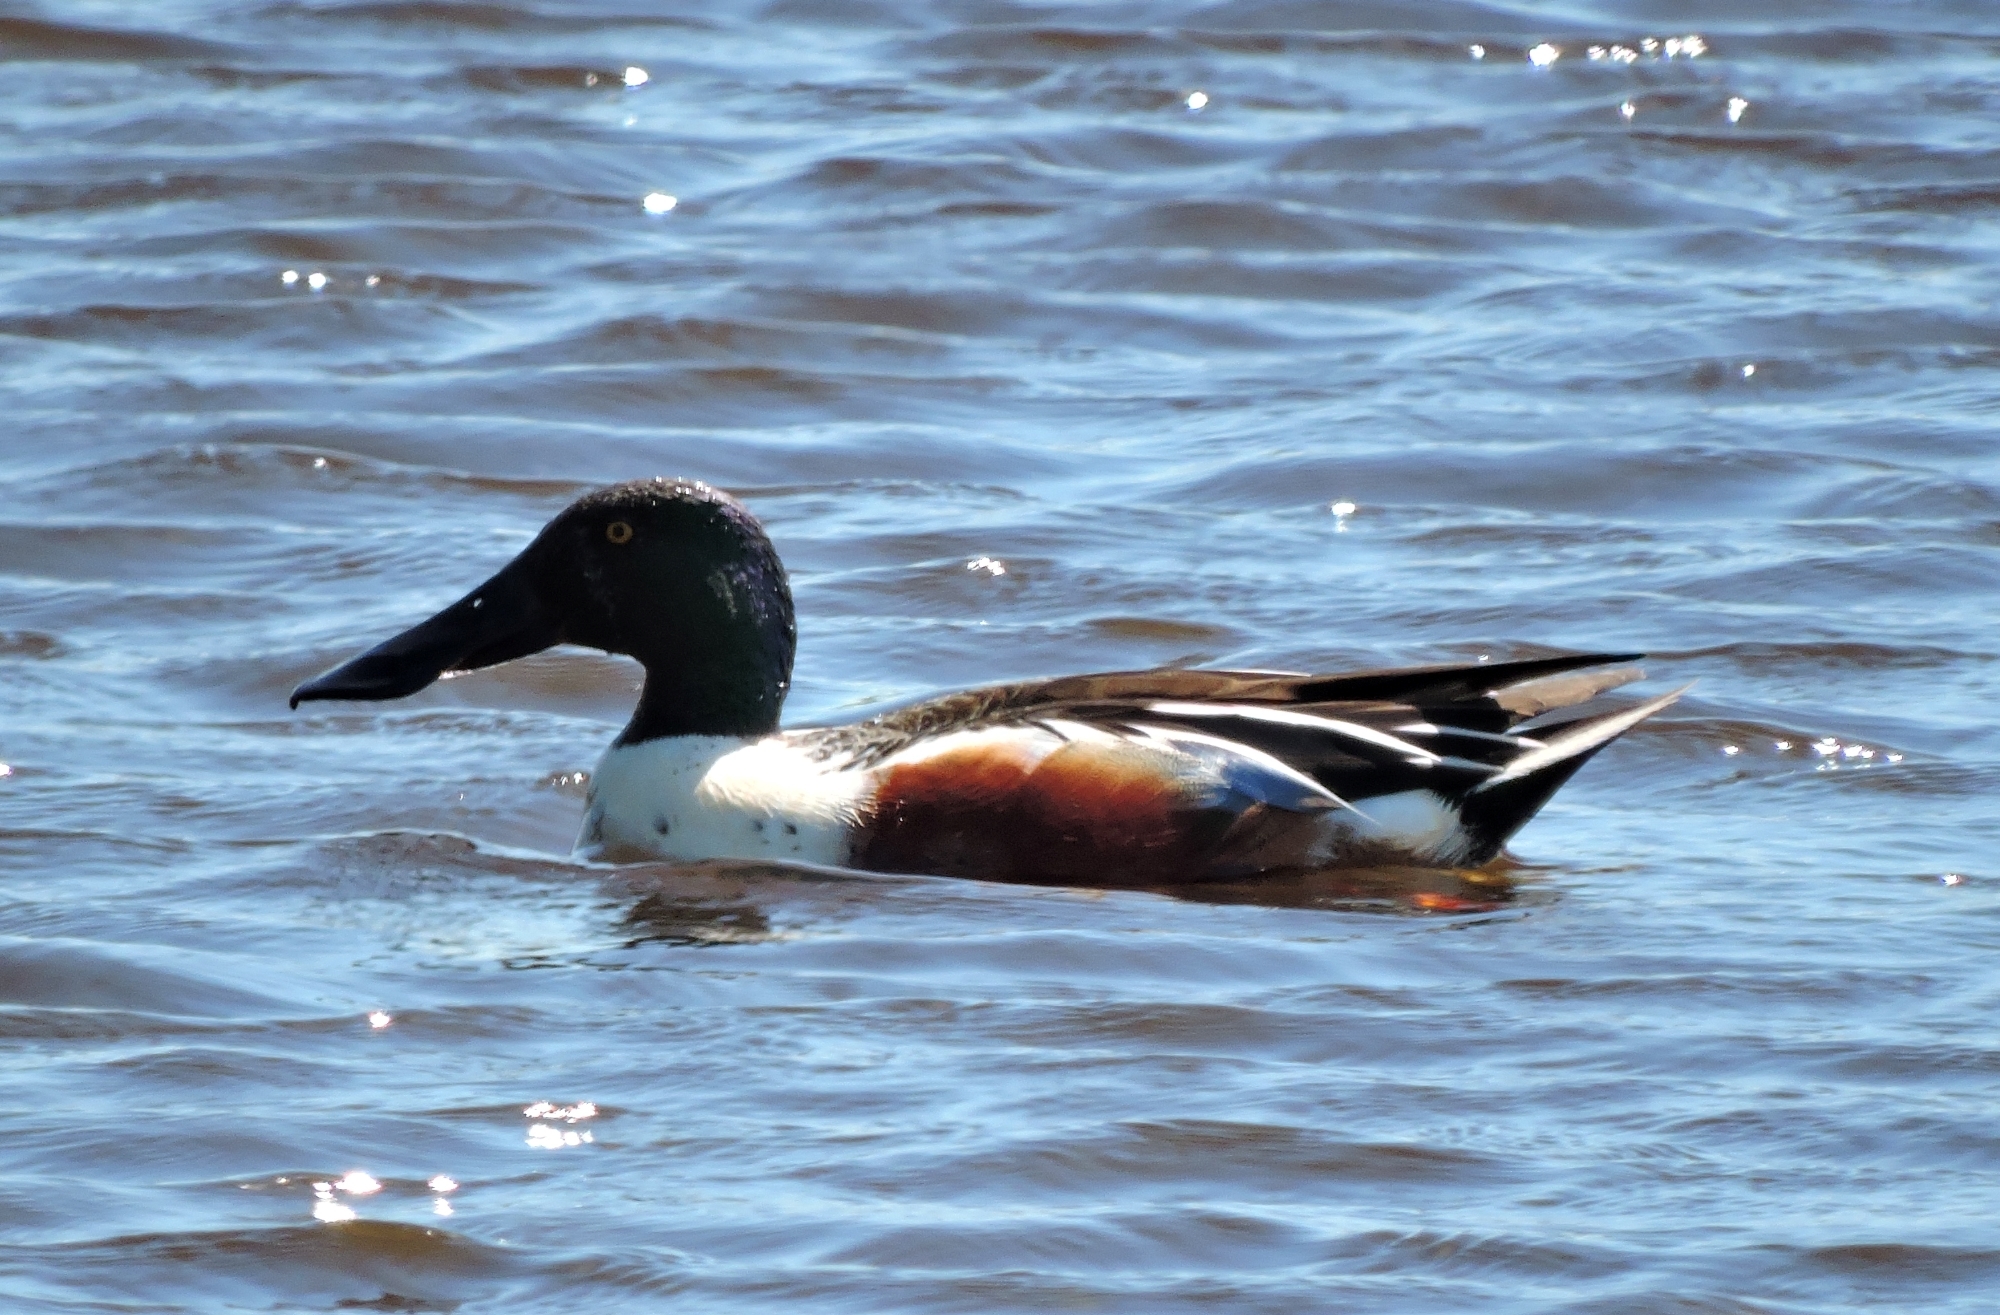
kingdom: Animalia
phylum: Chordata
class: Aves
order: Anseriformes
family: Anatidae
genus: Spatula
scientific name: Spatula clypeata
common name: Northern shoveler
